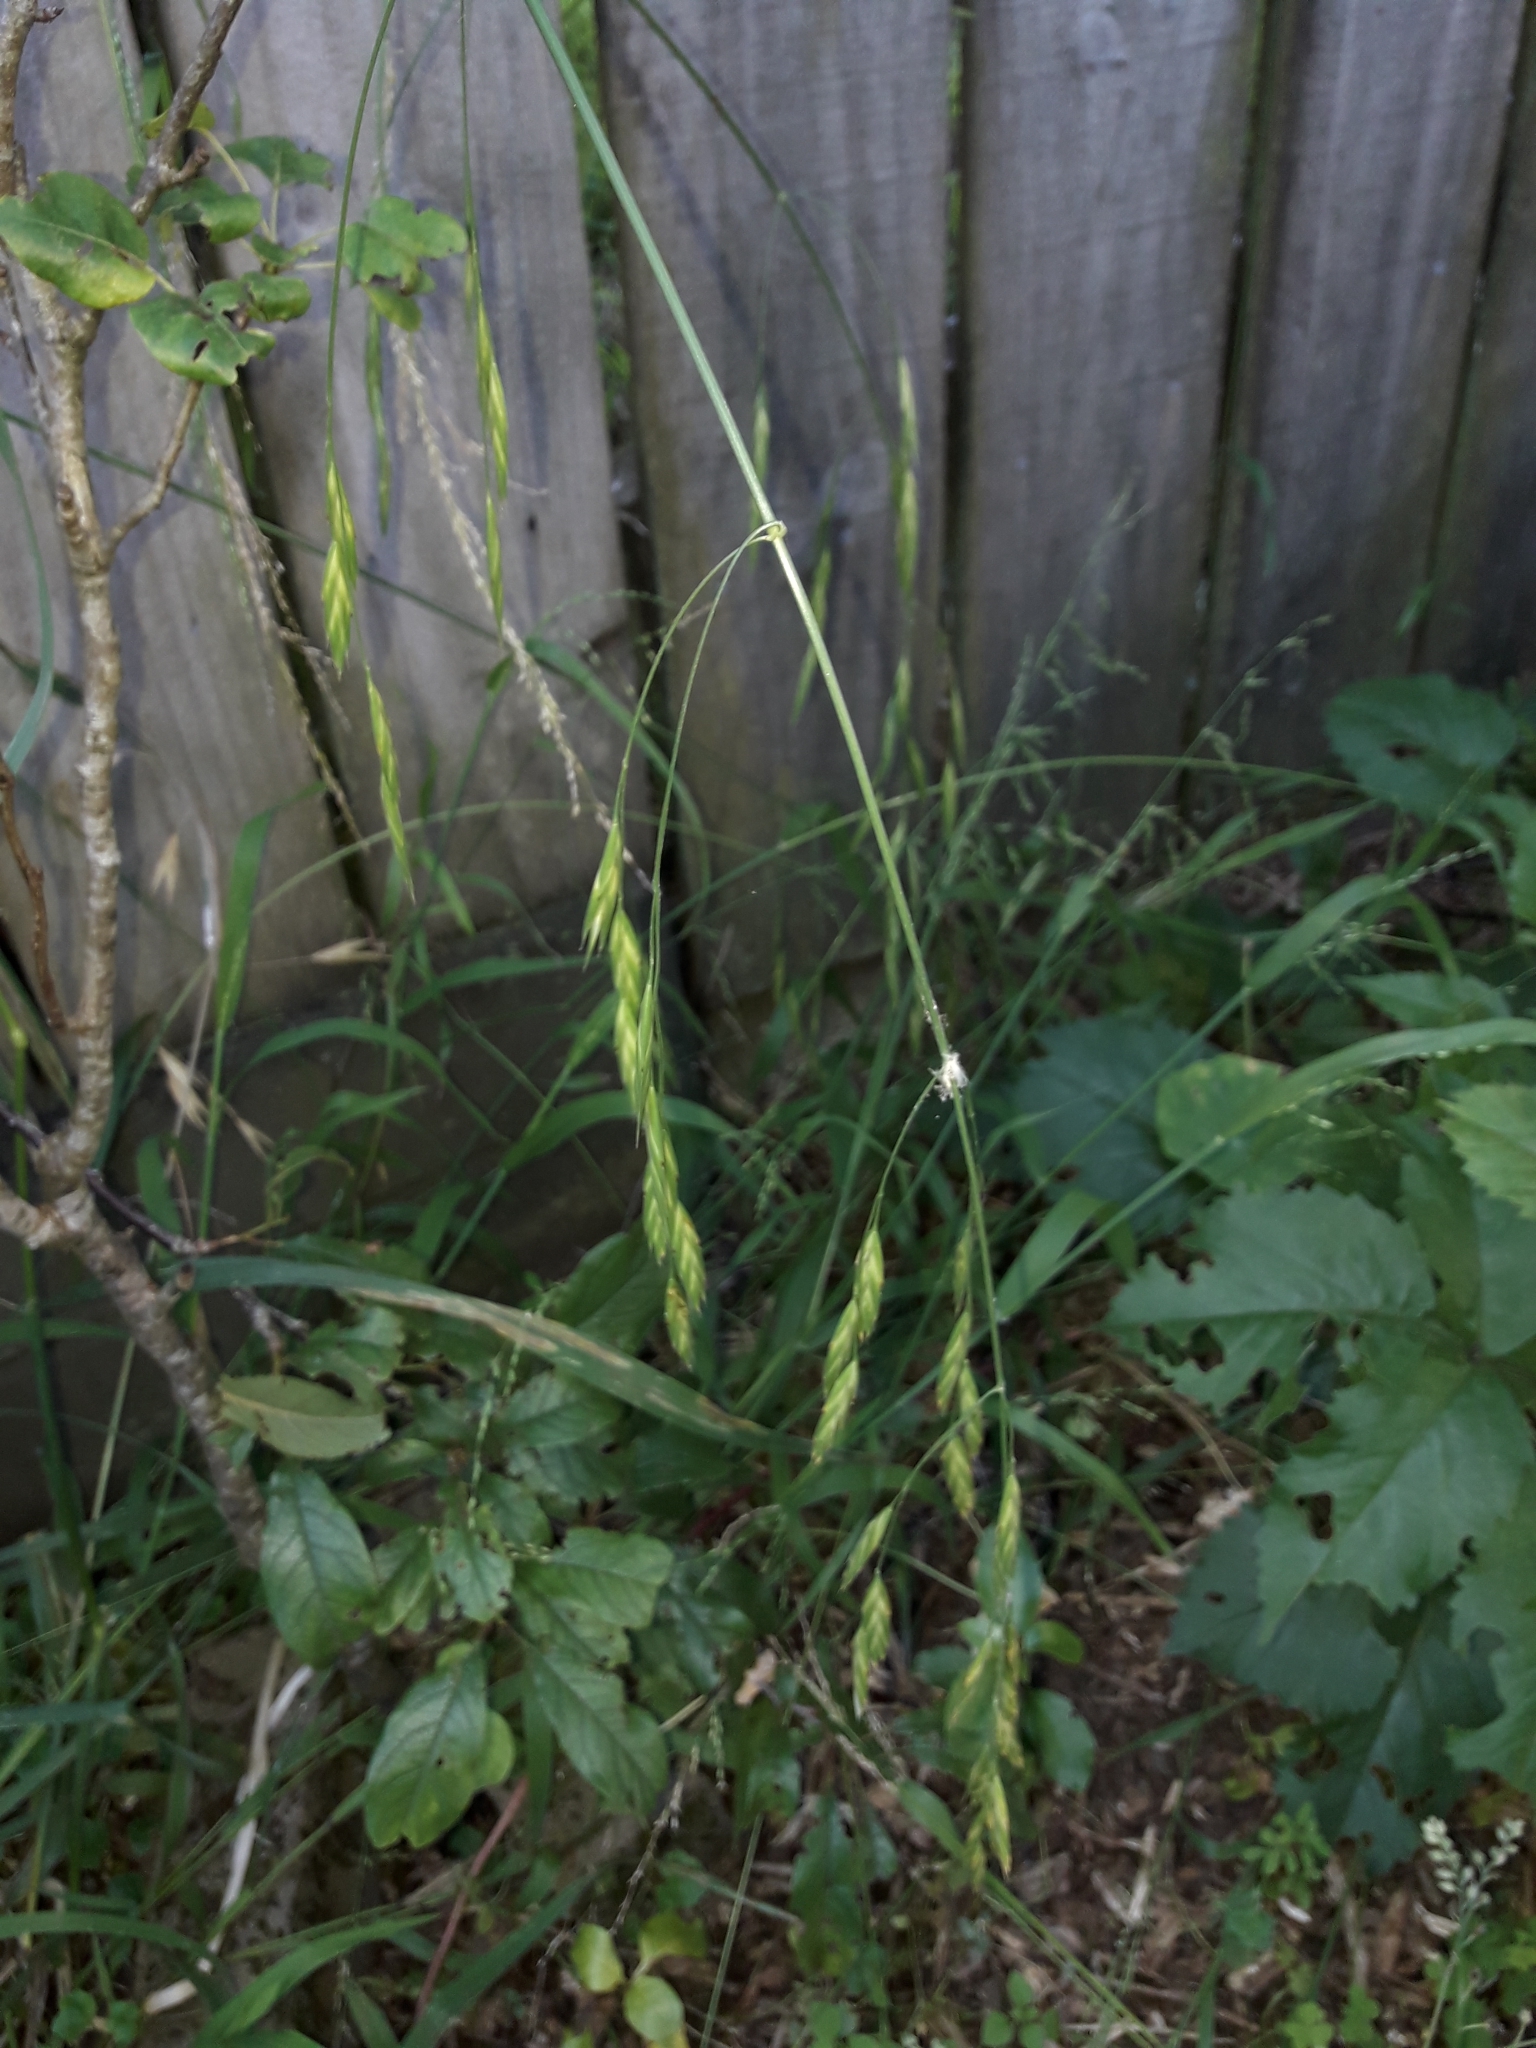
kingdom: Plantae
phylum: Tracheophyta
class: Liliopsida
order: Poales
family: Poaceae
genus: Bromus
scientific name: Bromus catharticus
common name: Rescuegrass
